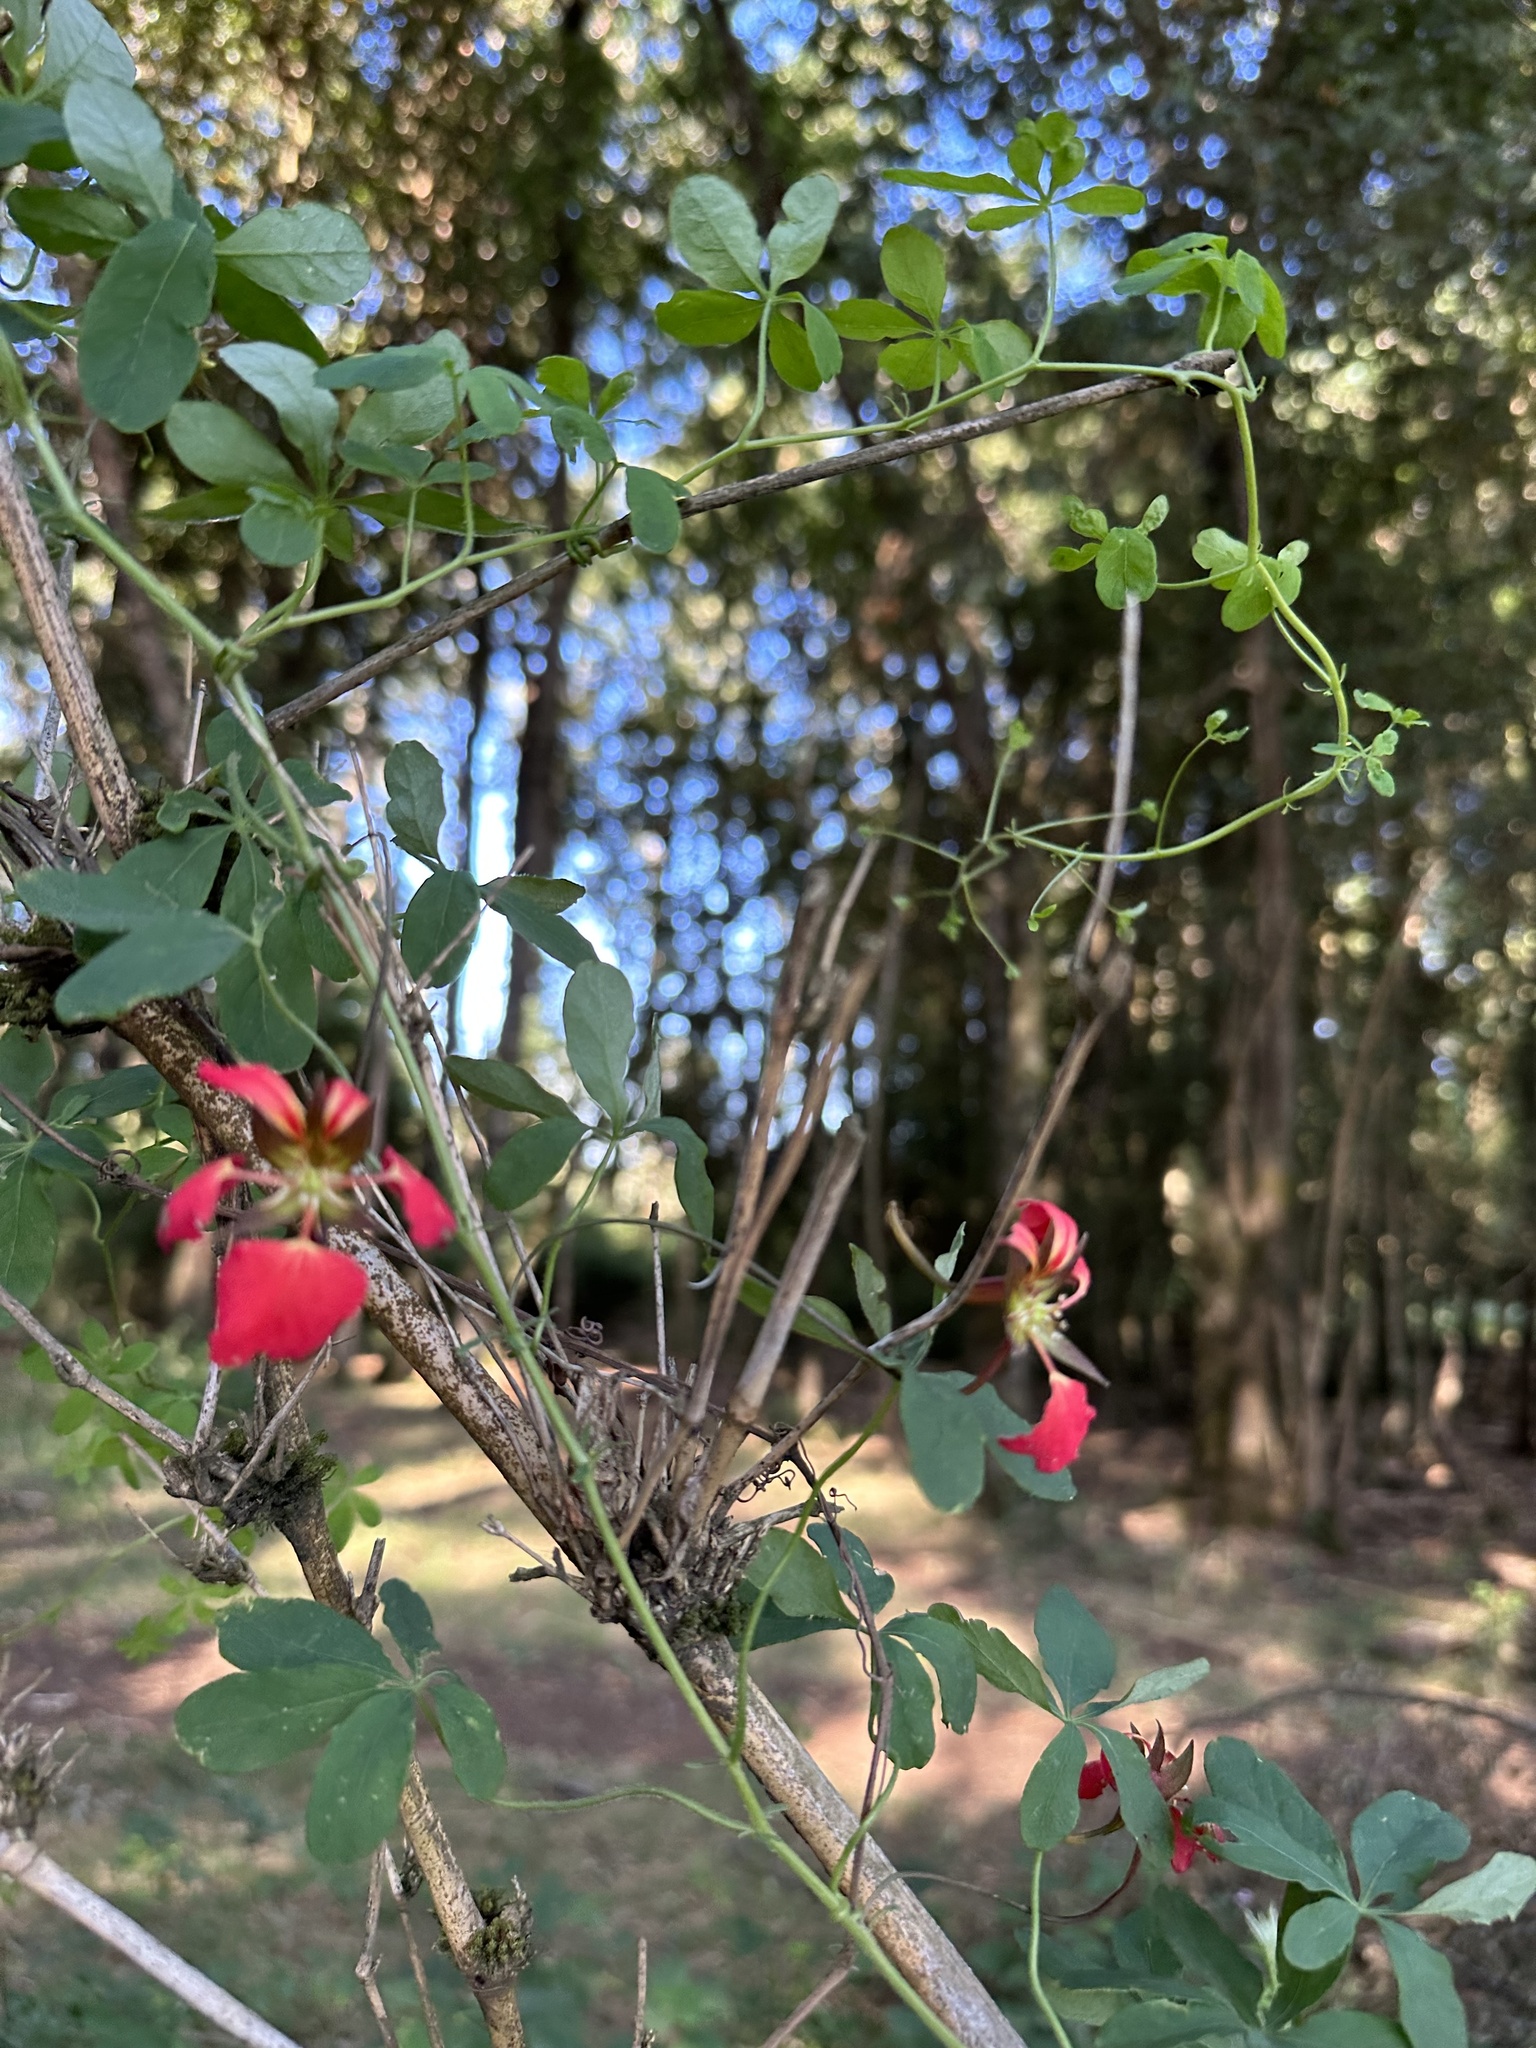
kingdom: Plantae
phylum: Tracheophyta
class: Magnoliopsida
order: Brassicales
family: Tropaeolaceae
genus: Tropaeolum
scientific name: Tropaeolum speciosum
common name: Flame nasturtium
